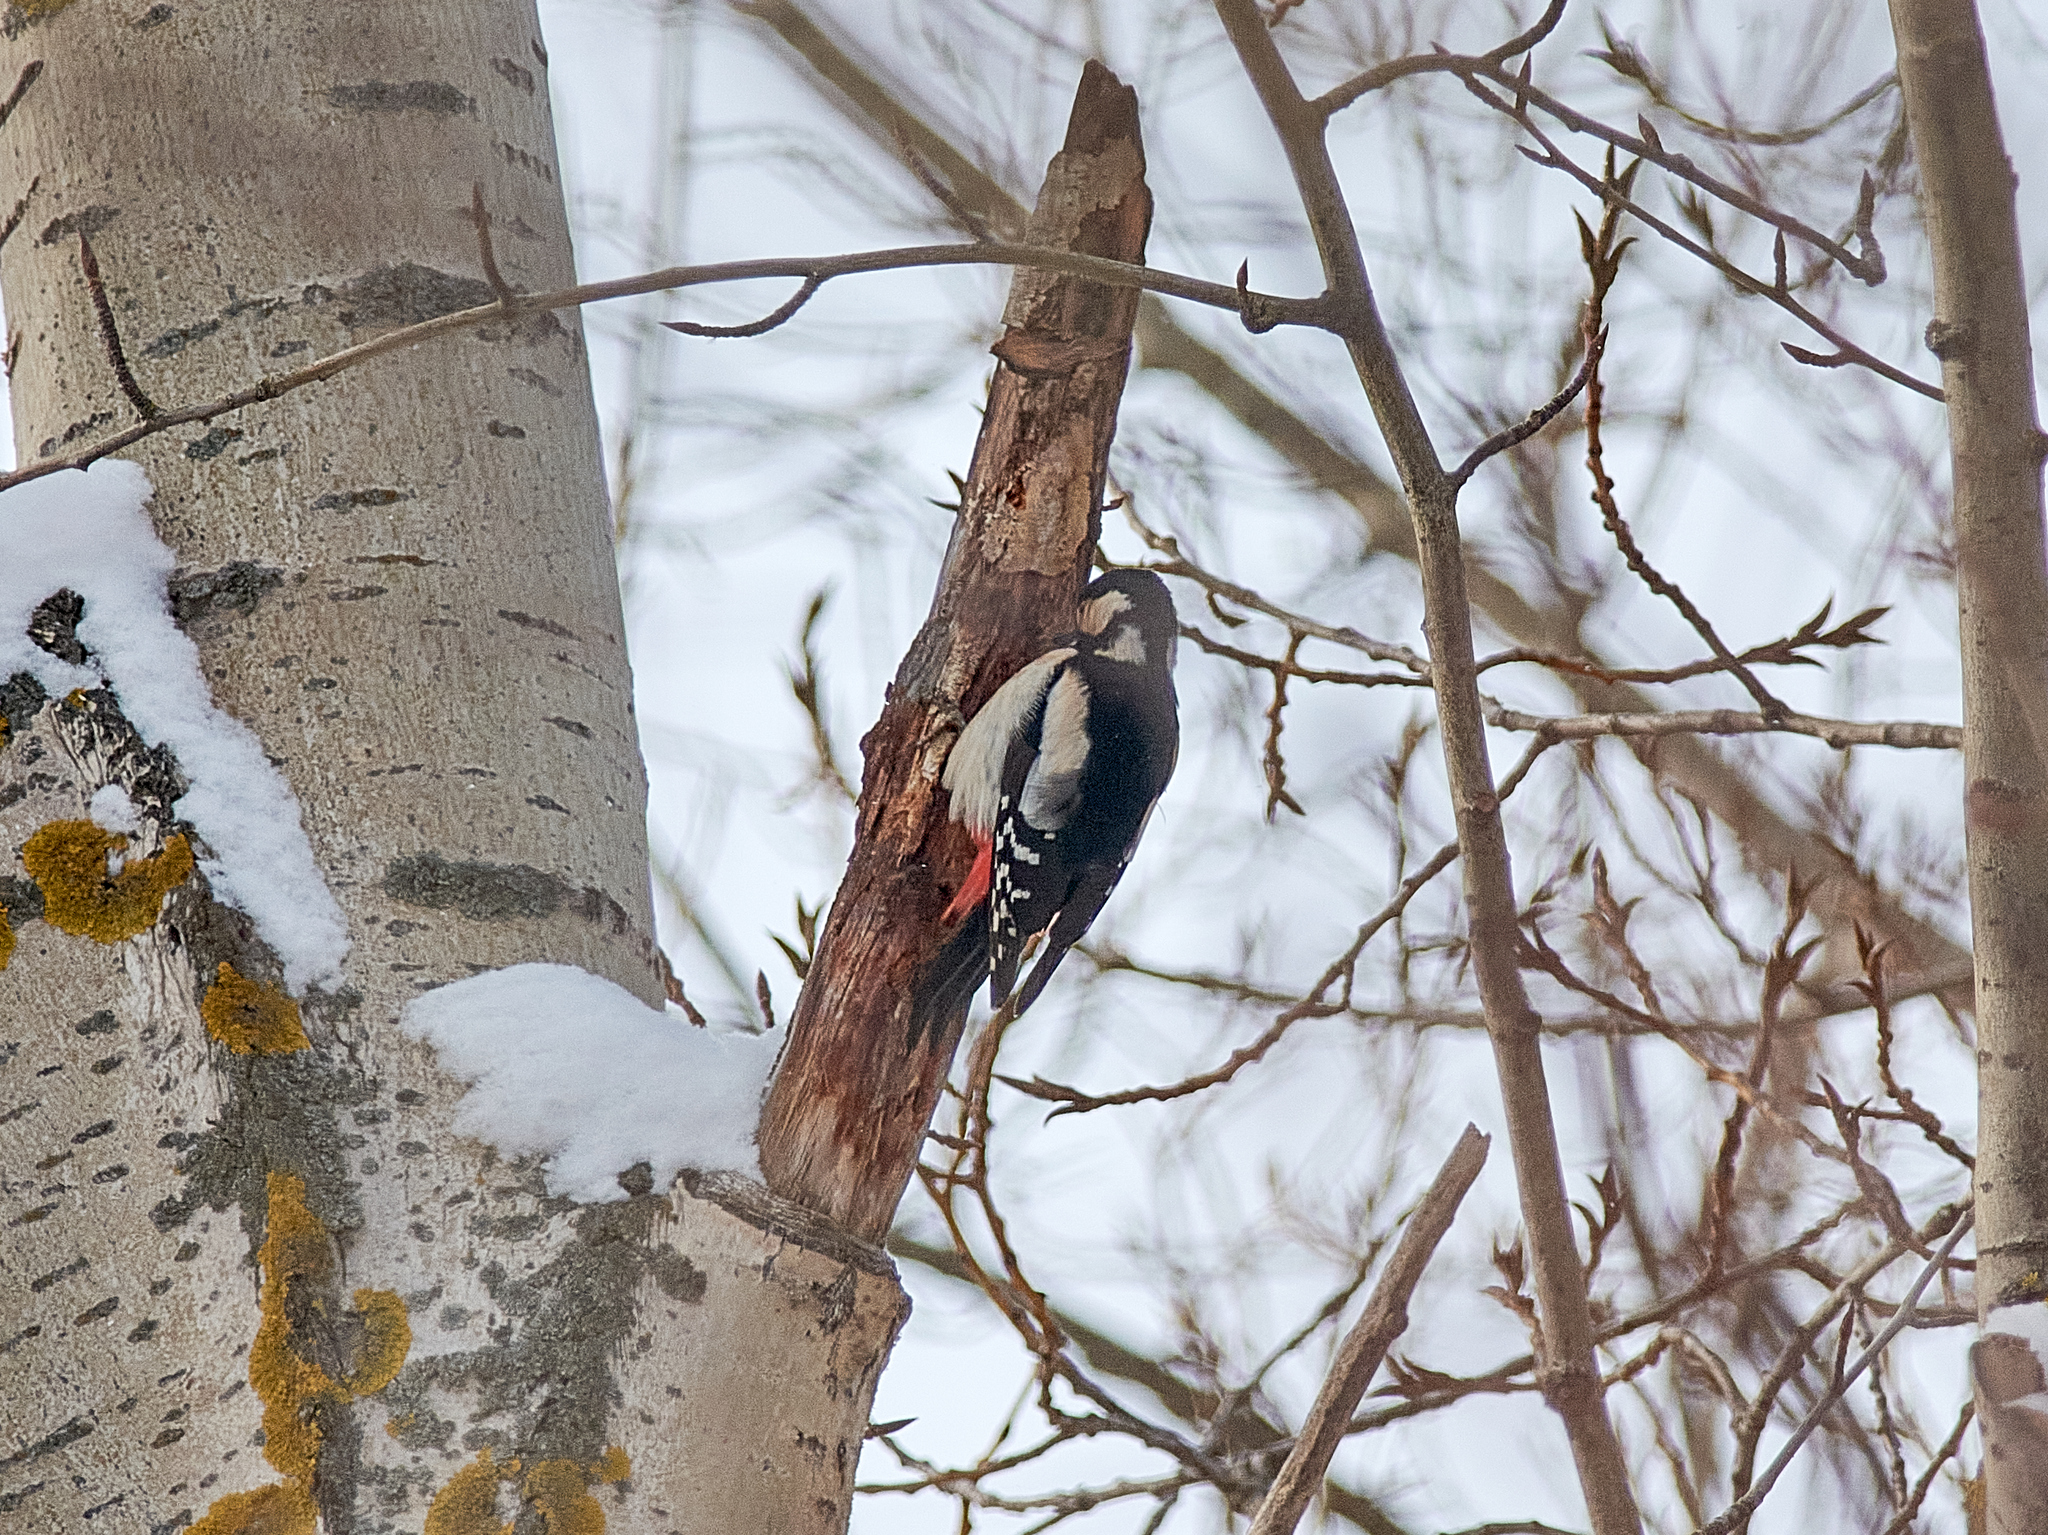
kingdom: Animalia
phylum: Chordata
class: Aves
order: Piciformes
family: Picidae
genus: Dendrocopos
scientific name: Dendrocopos major
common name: Great spotted woodpecker
